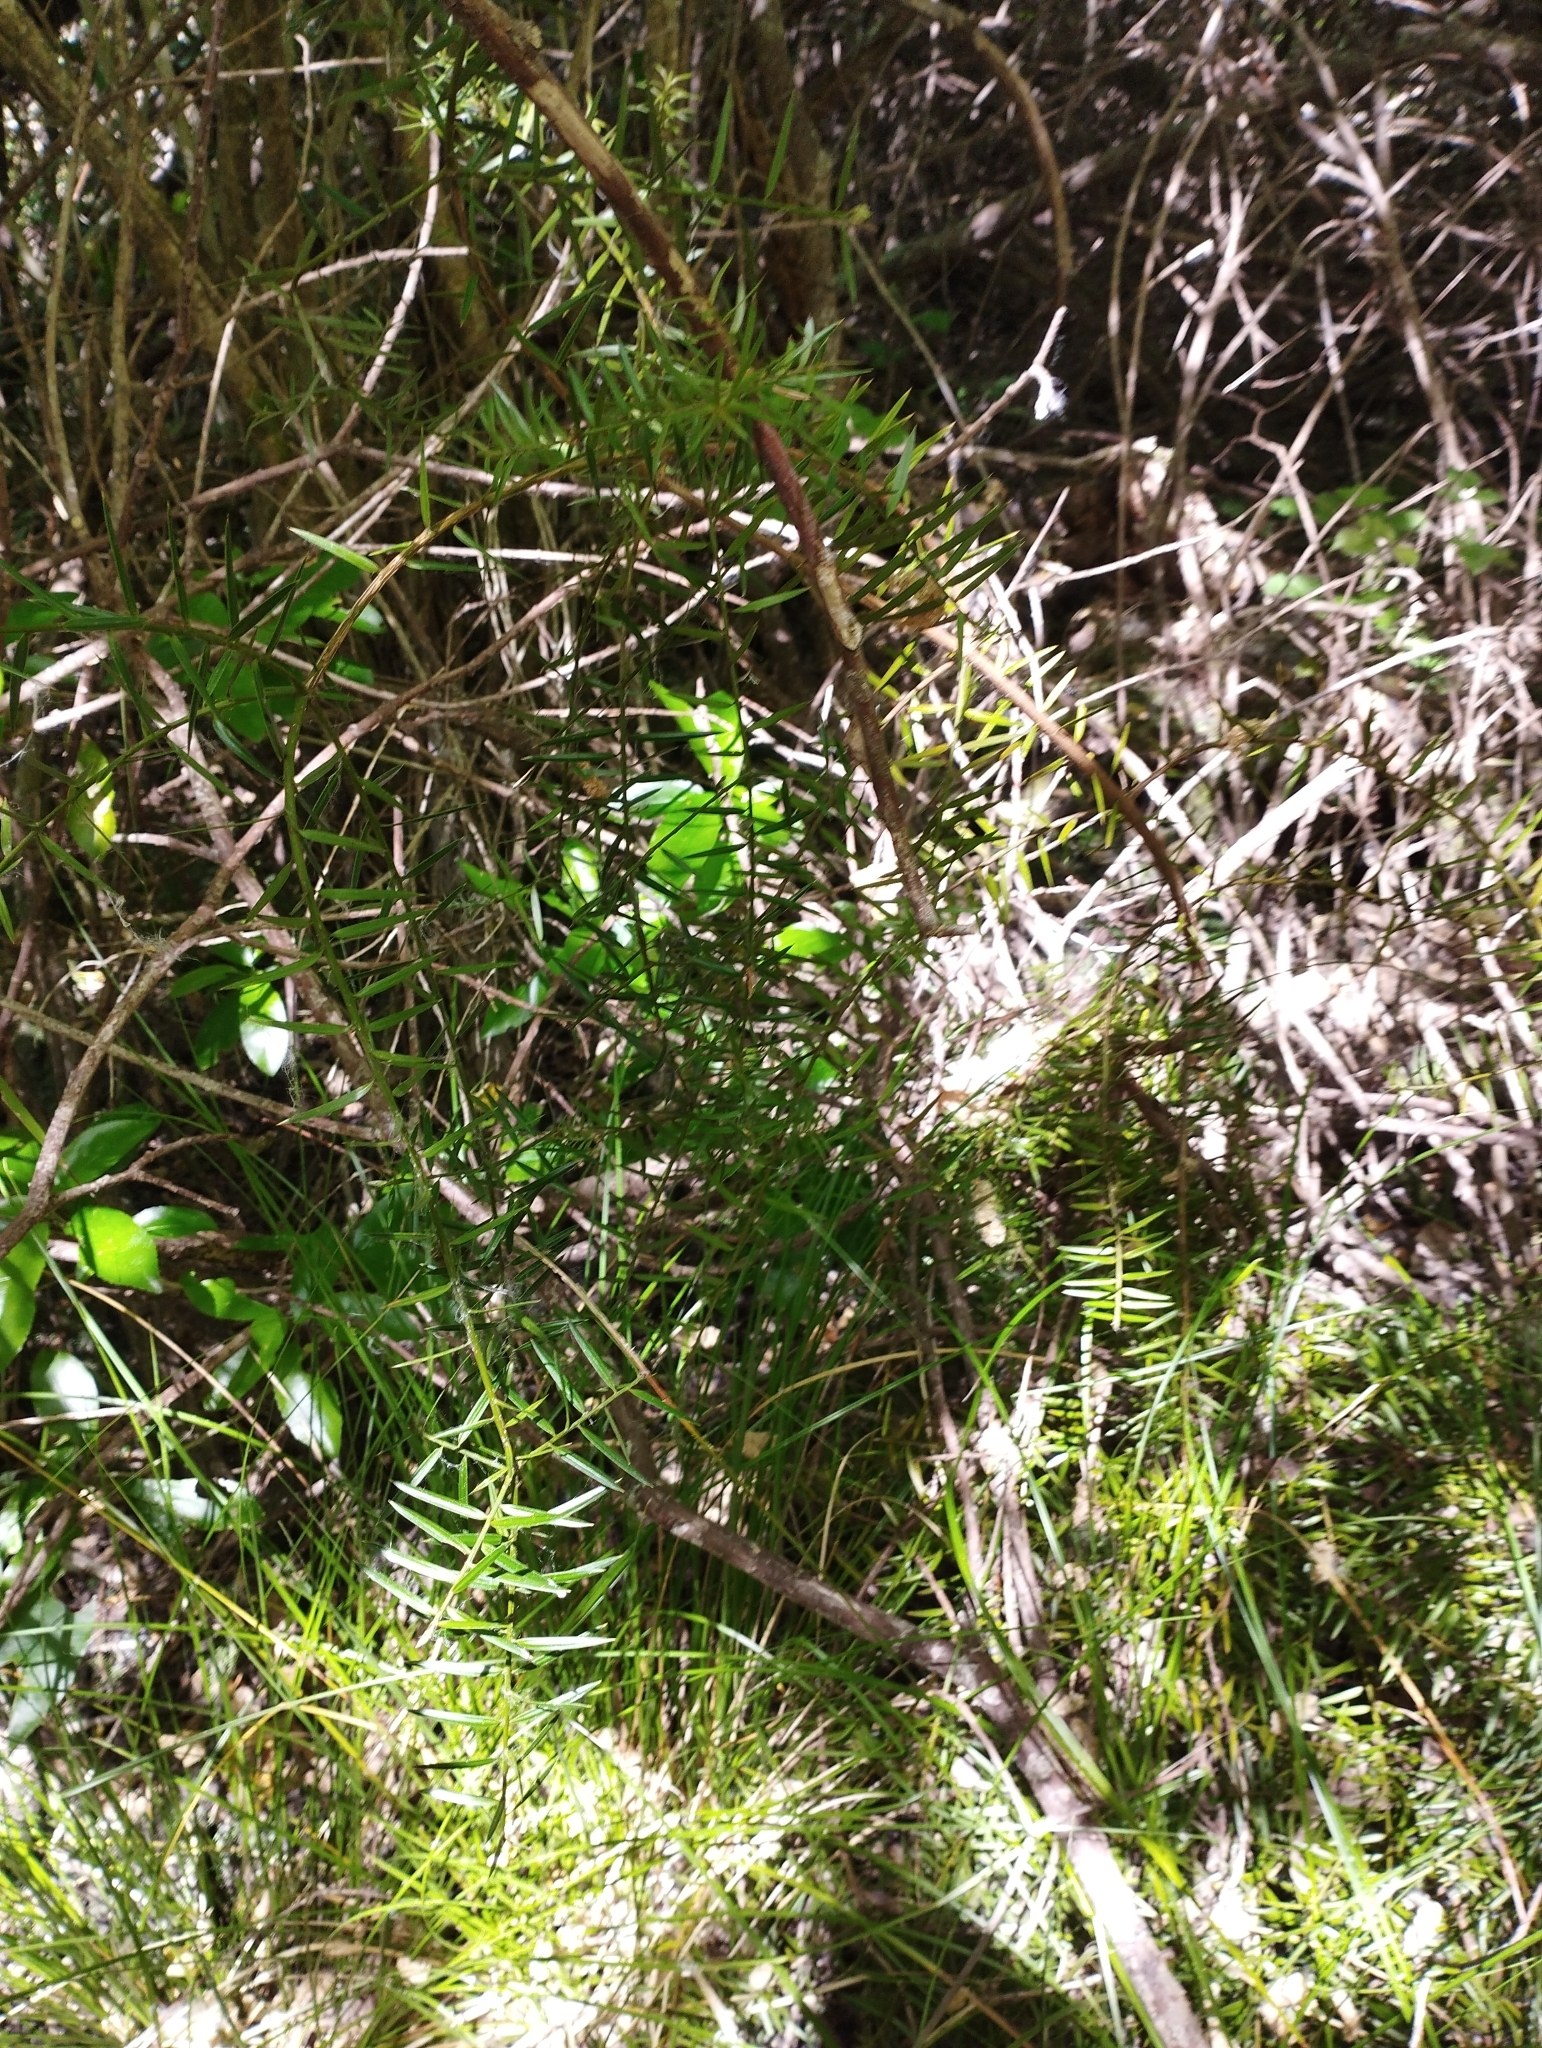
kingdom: Plantae
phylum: Tracheophyta
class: Pinopsida
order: Pinales
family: Podocarpaceae
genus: Podocarpus
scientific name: Podocarpus totara
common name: Totara
